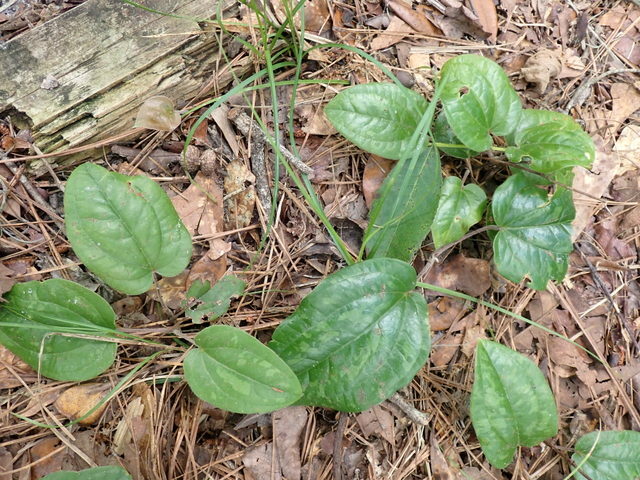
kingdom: Plantae
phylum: Tracheophyta
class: Liliopsida
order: Liliales
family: Smilacaceae
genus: Smilax
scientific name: Smilax pumila
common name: Sarsaparilla-vine
